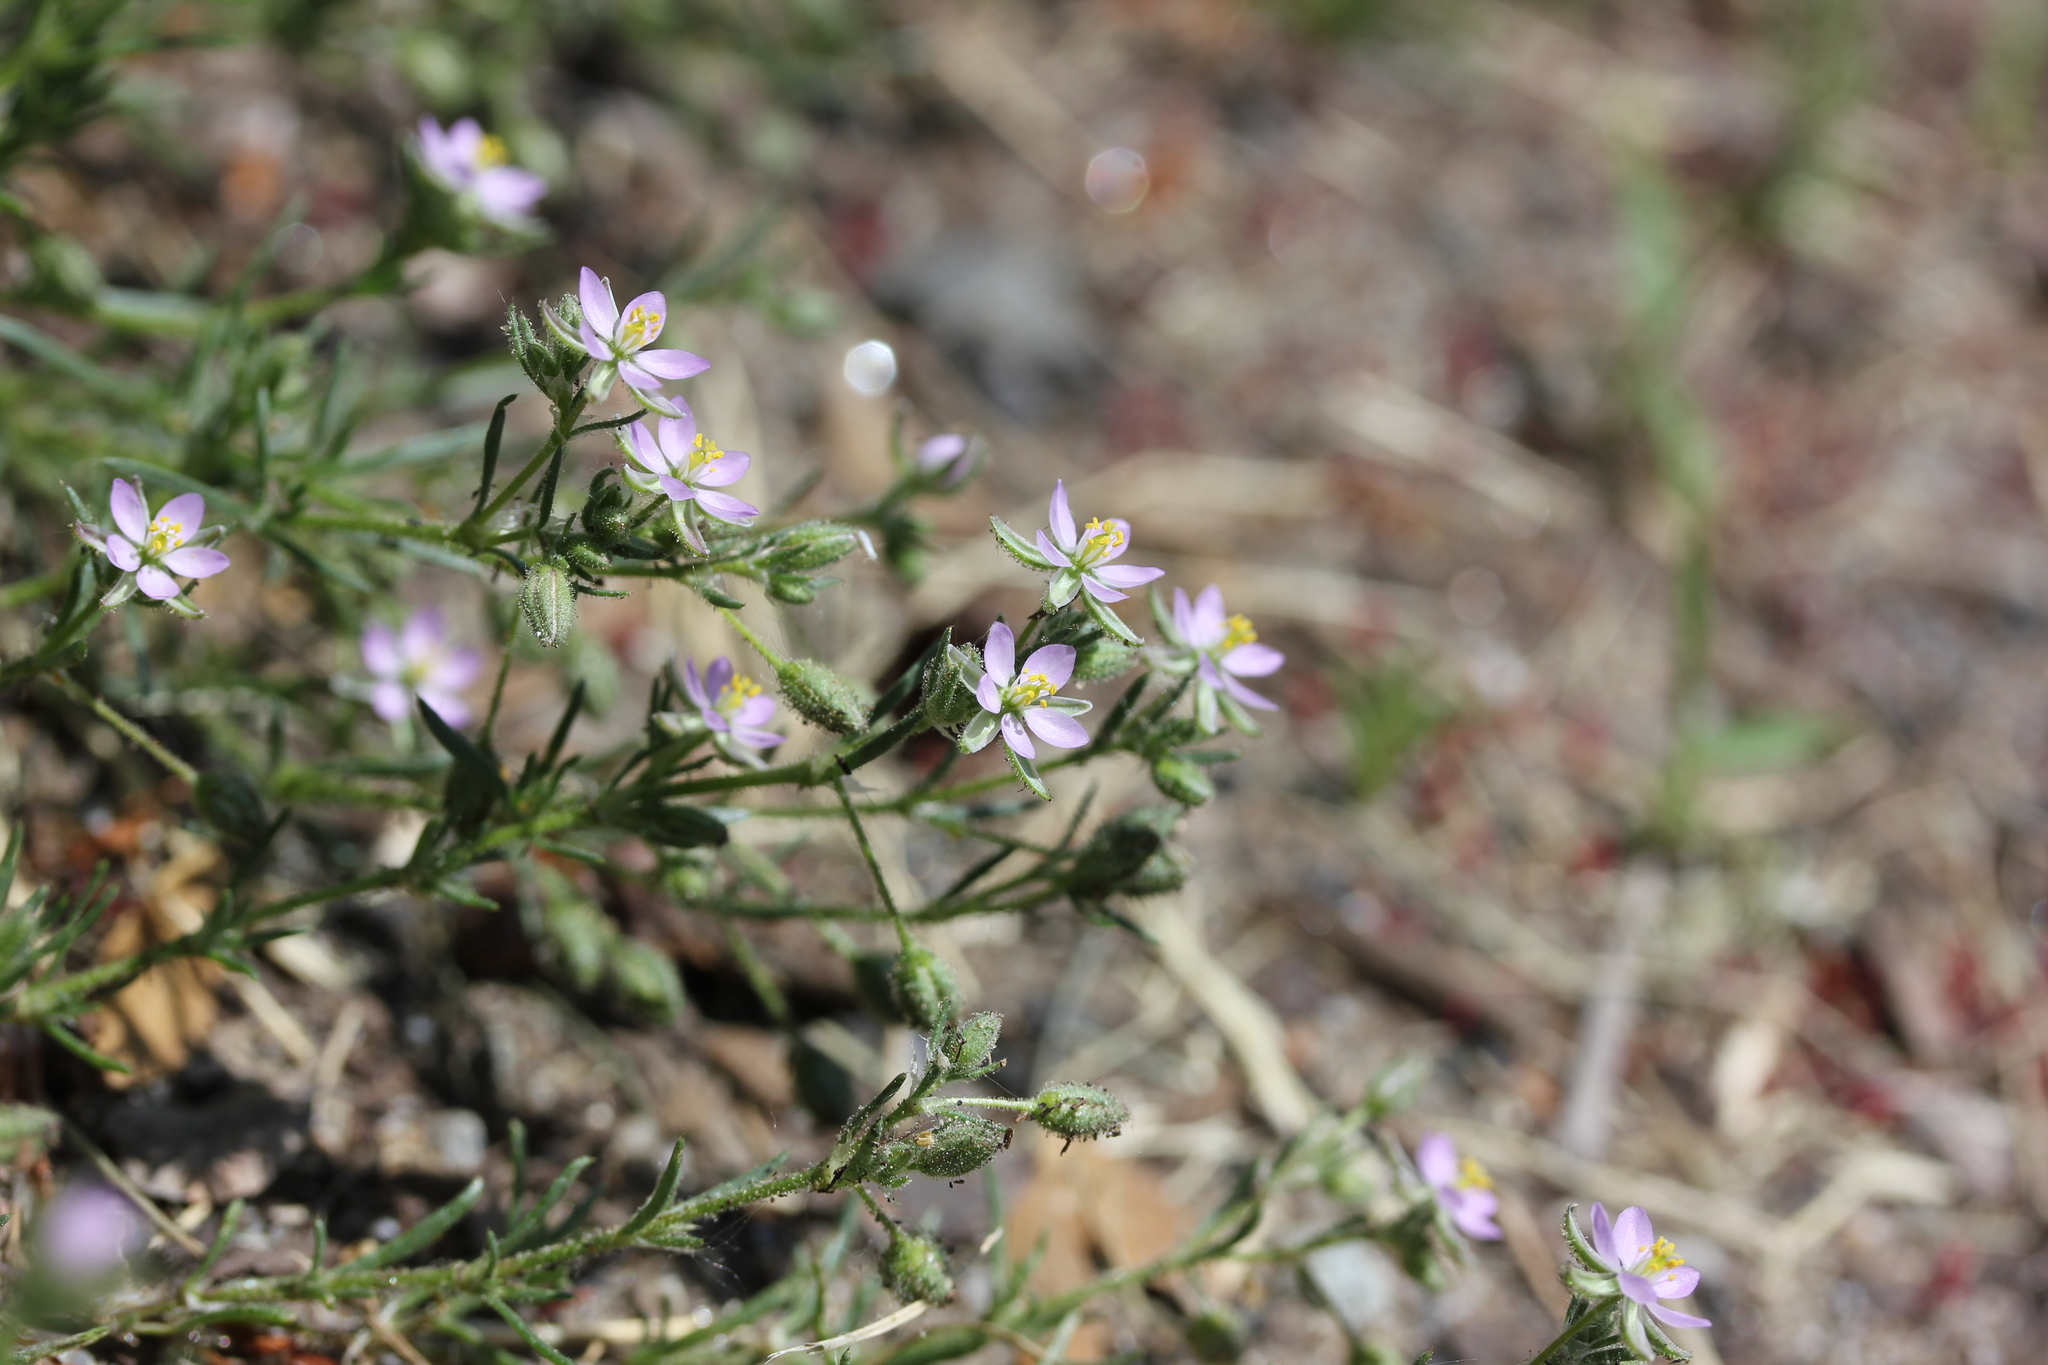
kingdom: Plantae
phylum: Tracheophyta
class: Magnoliopsida
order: Caryophyllales
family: Caryophyllaceae
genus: Spergularia
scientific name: Spergularia rubra
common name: Red sand-spurrey
